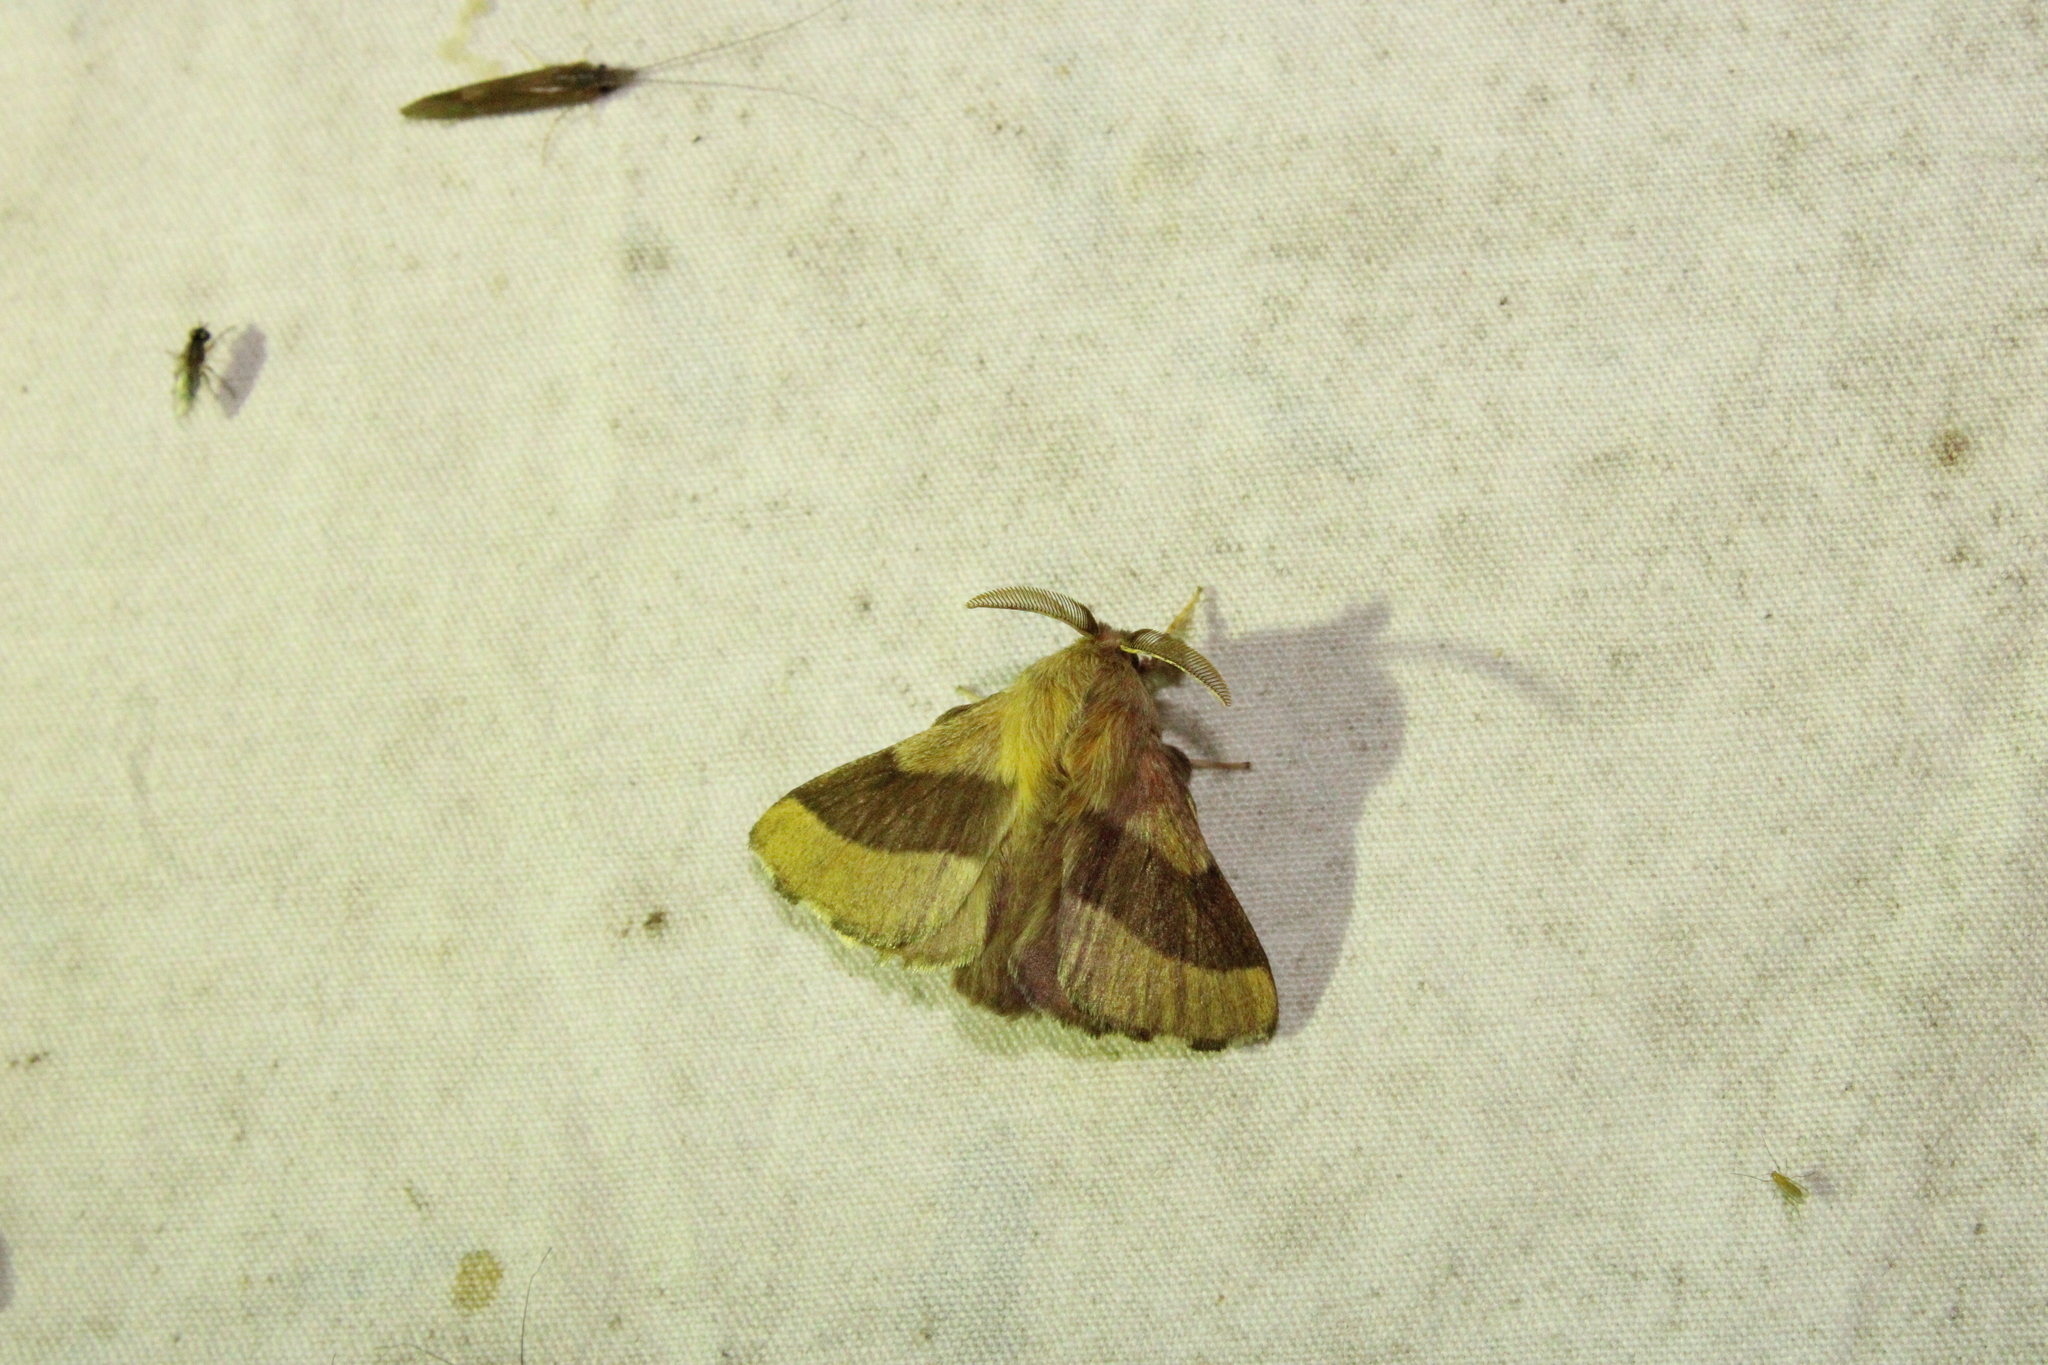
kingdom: Animalia
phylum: Arthropoda
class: Insecta
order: Lepidoptera
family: Lasiocampidae
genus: Malacosoma
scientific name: Malacosoma disstria
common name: Forest tent caterpillar
